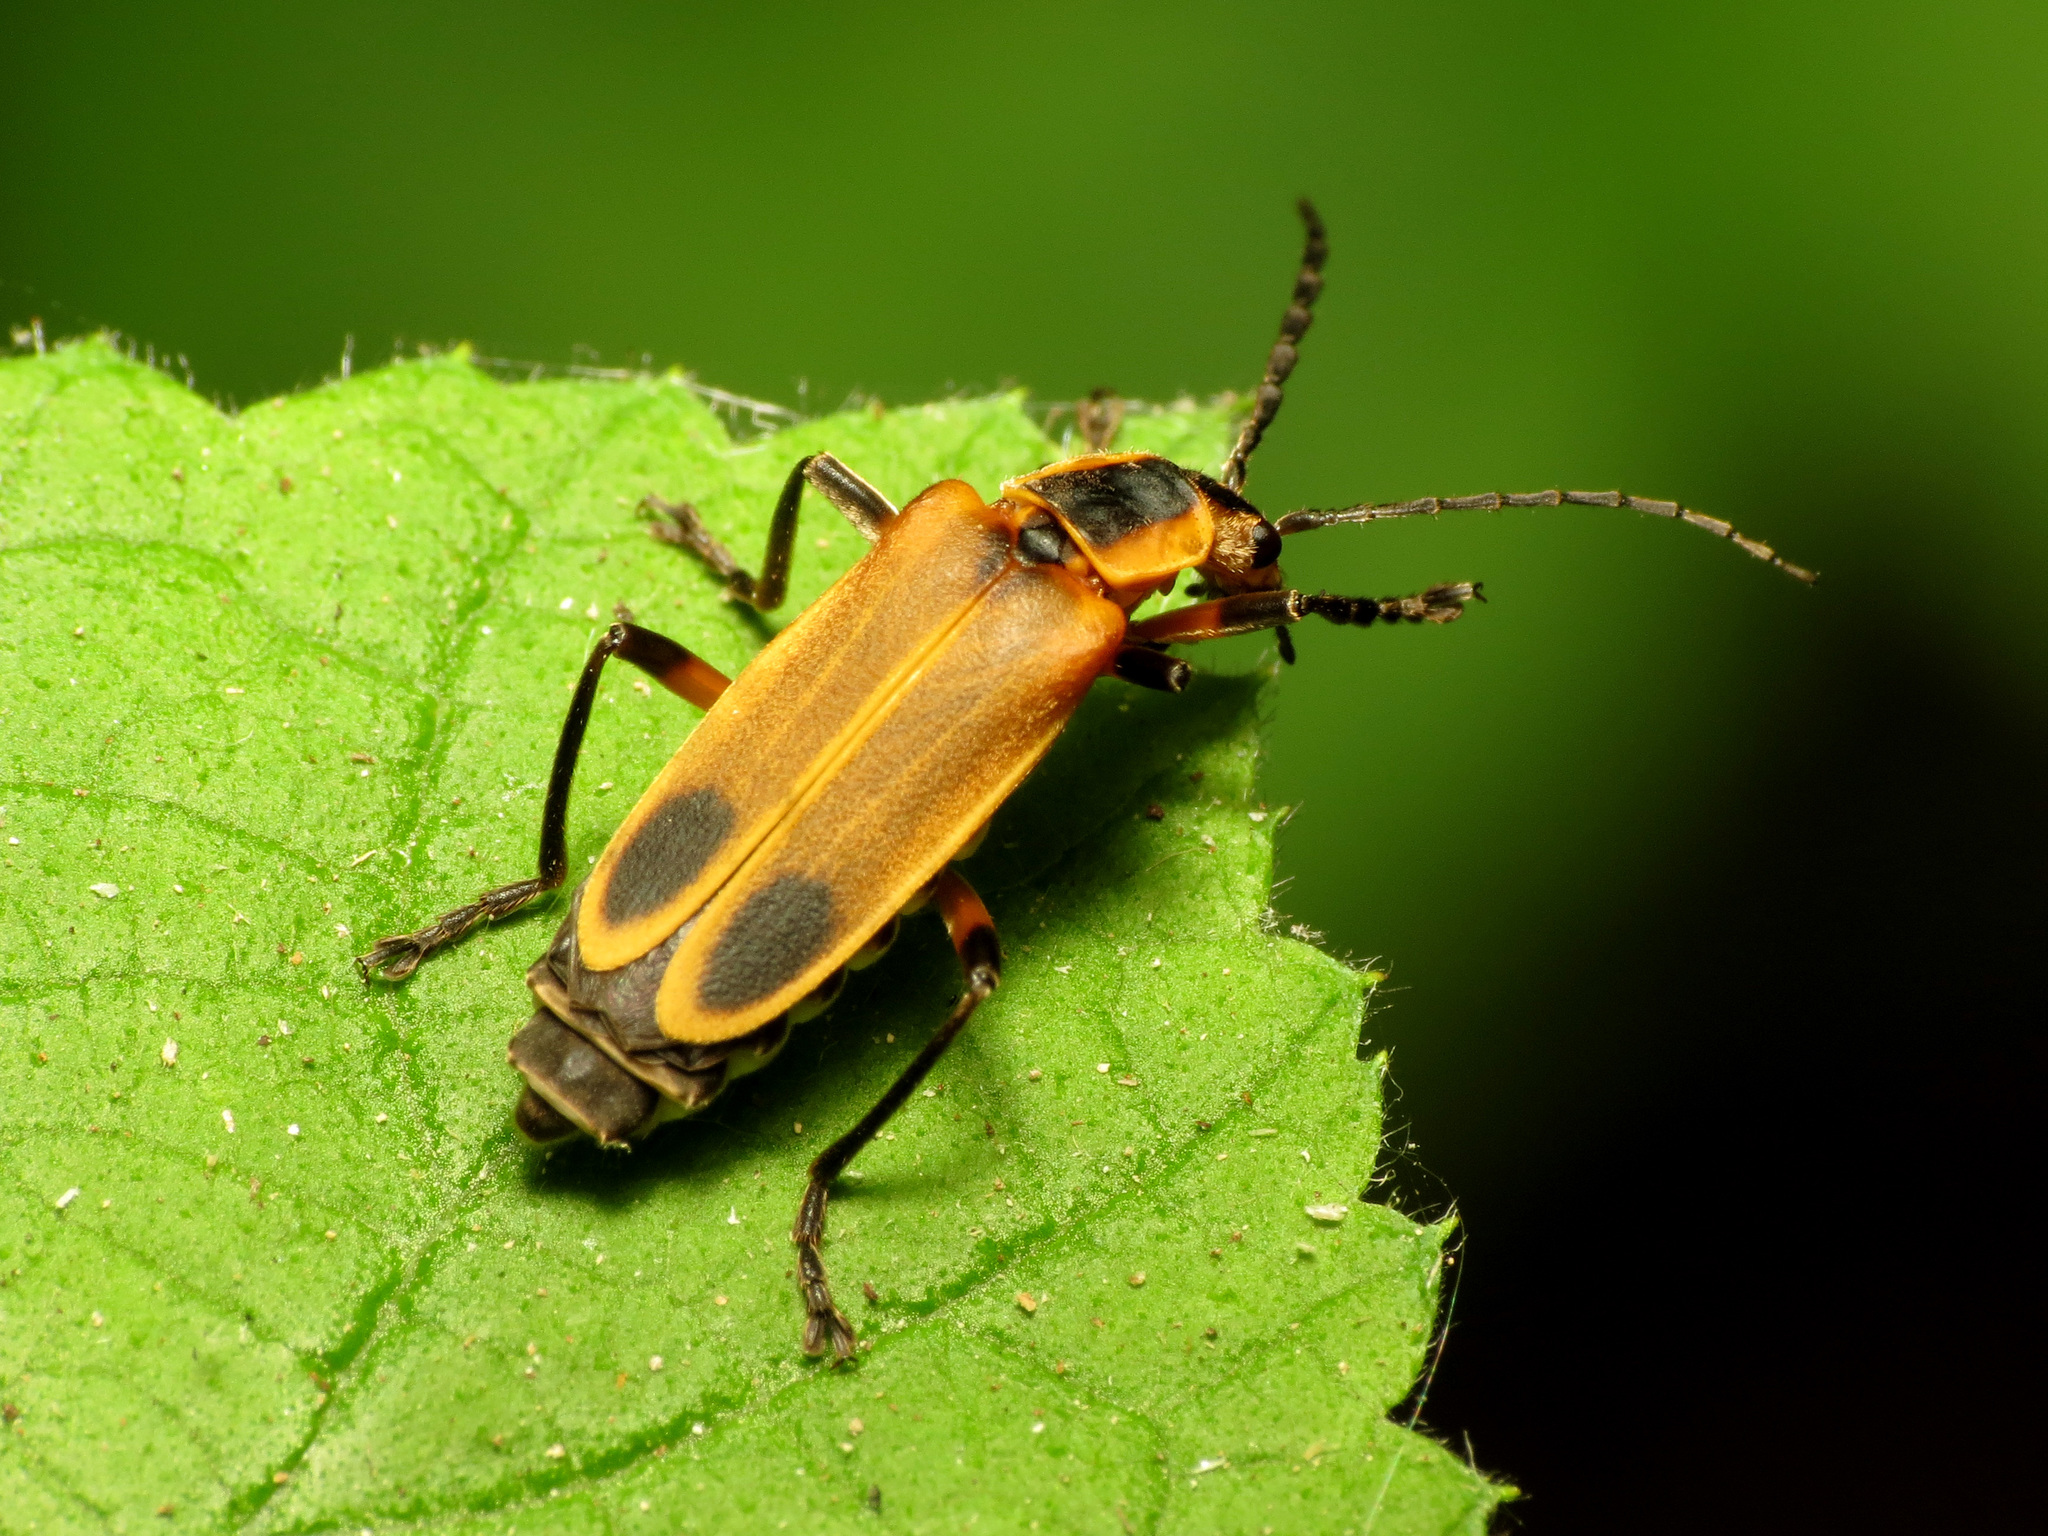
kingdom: Animalia
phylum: Arthropoda
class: Insecta
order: Coleoptera
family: Cantharidae
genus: Chauliognathus
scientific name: Chauliognathus marginatus
